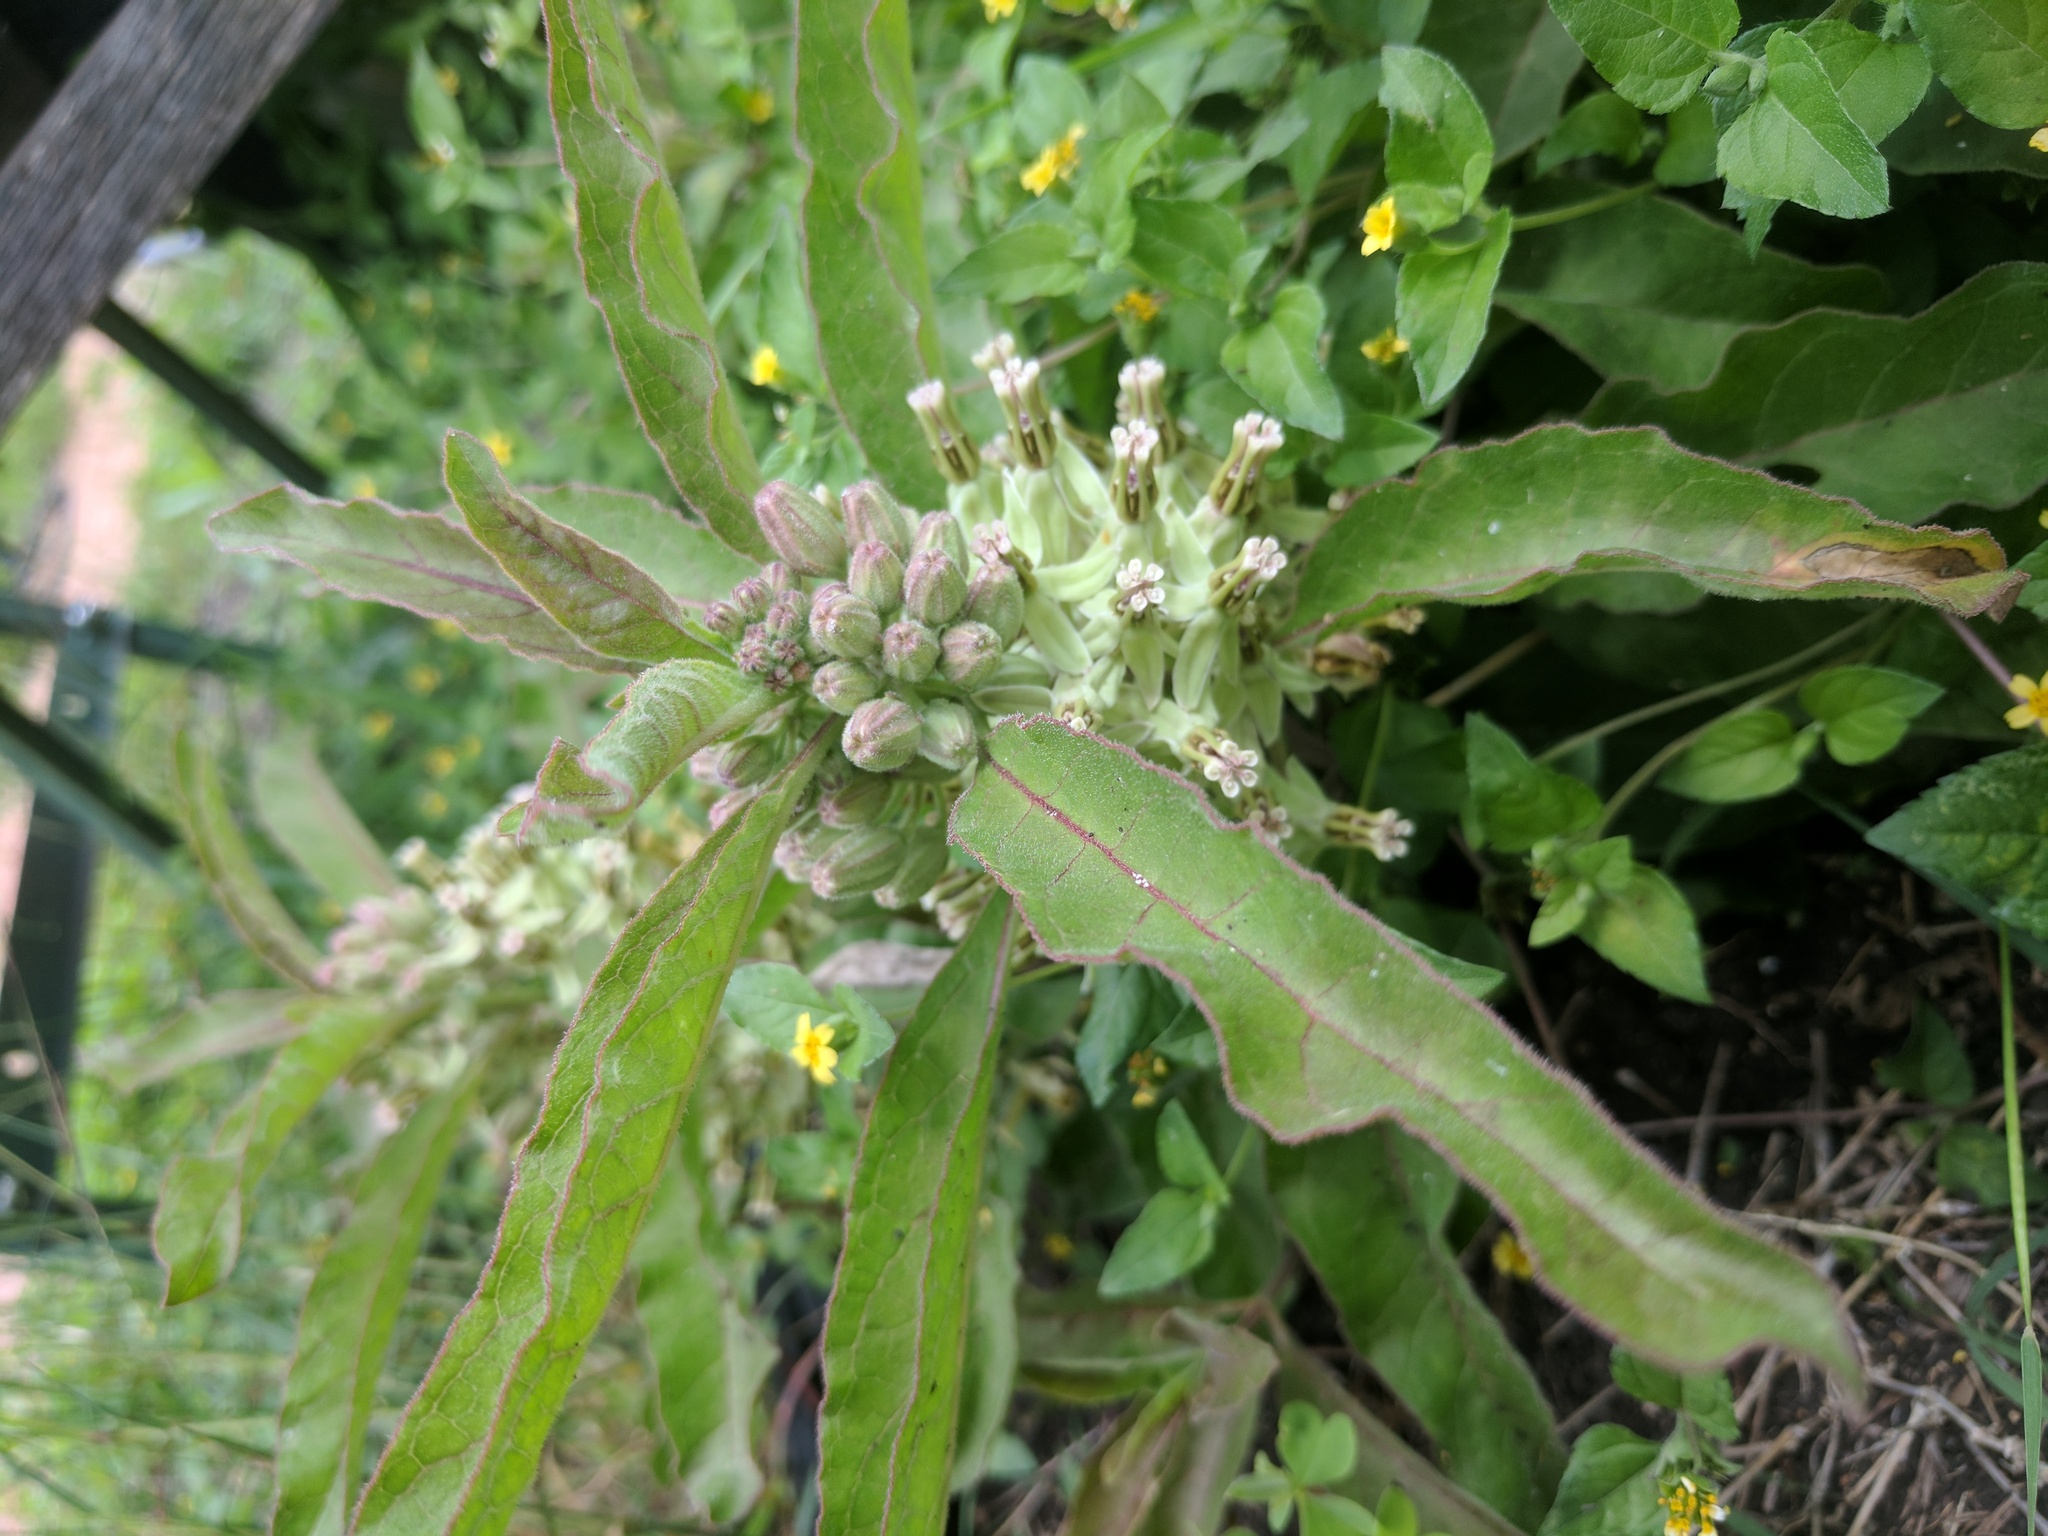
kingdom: Plantae
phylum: Tracheophyta
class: Magnoliopsida
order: Gentianales
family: Apocynaceae
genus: Asclepias
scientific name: Asclepias oenotheroides
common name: Zizotes milkweed
